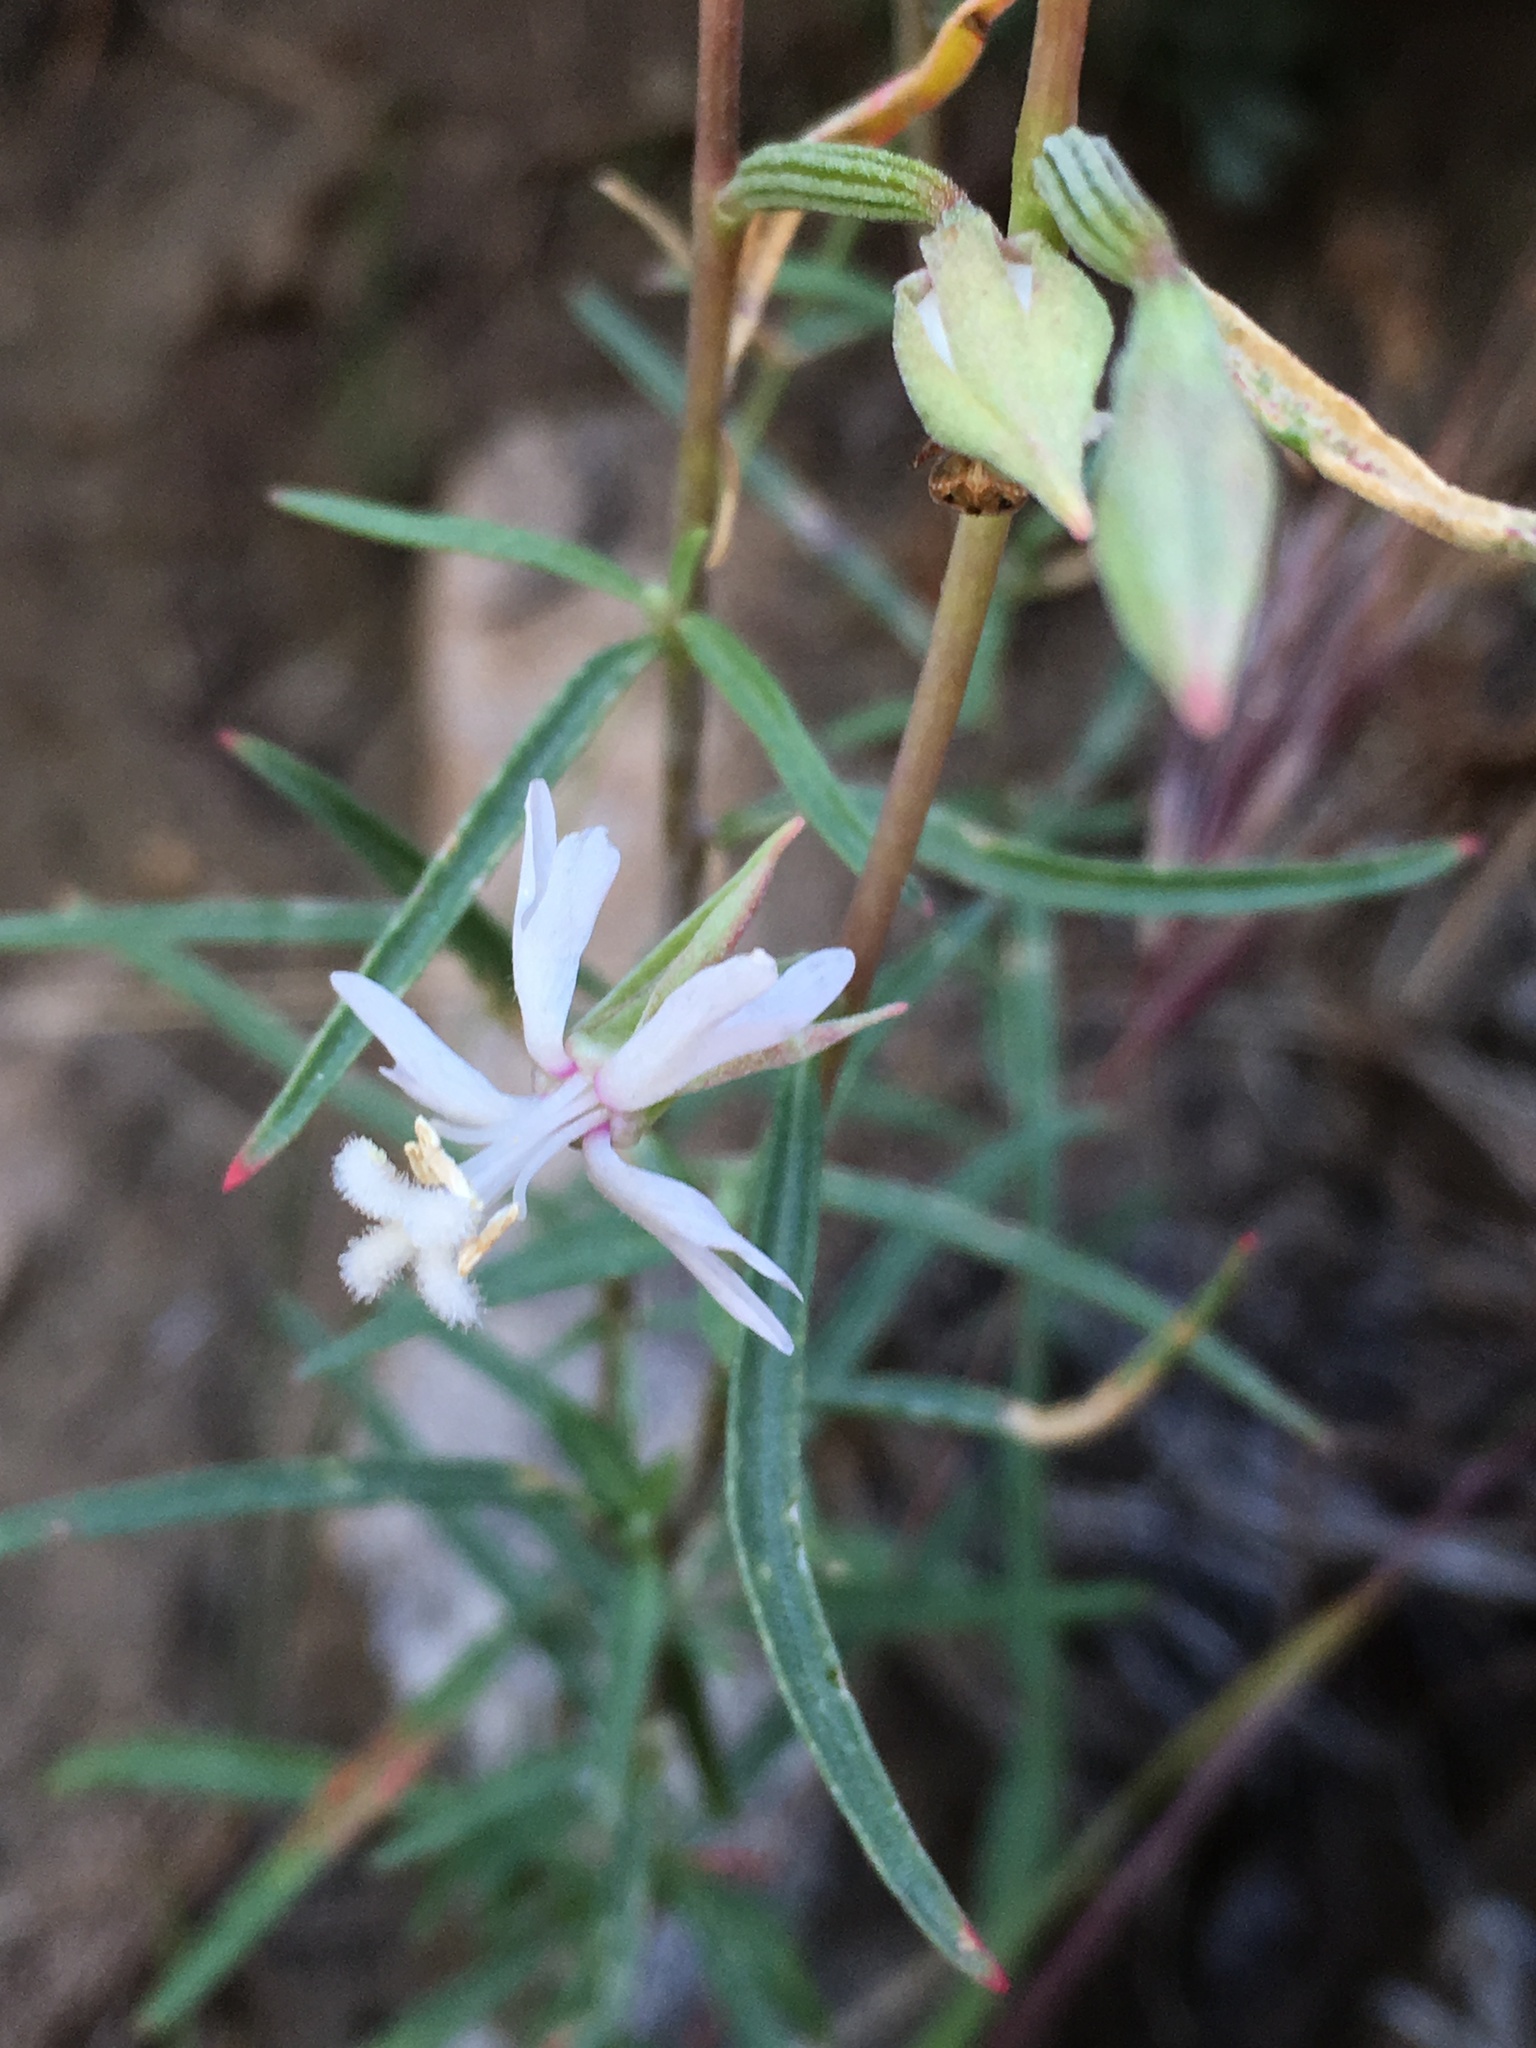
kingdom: Plantae
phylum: Tracheophyta
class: Magnoliopsida
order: Myrtales
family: Onagraceae
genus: Clarkia
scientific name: Clarkia xantiana
